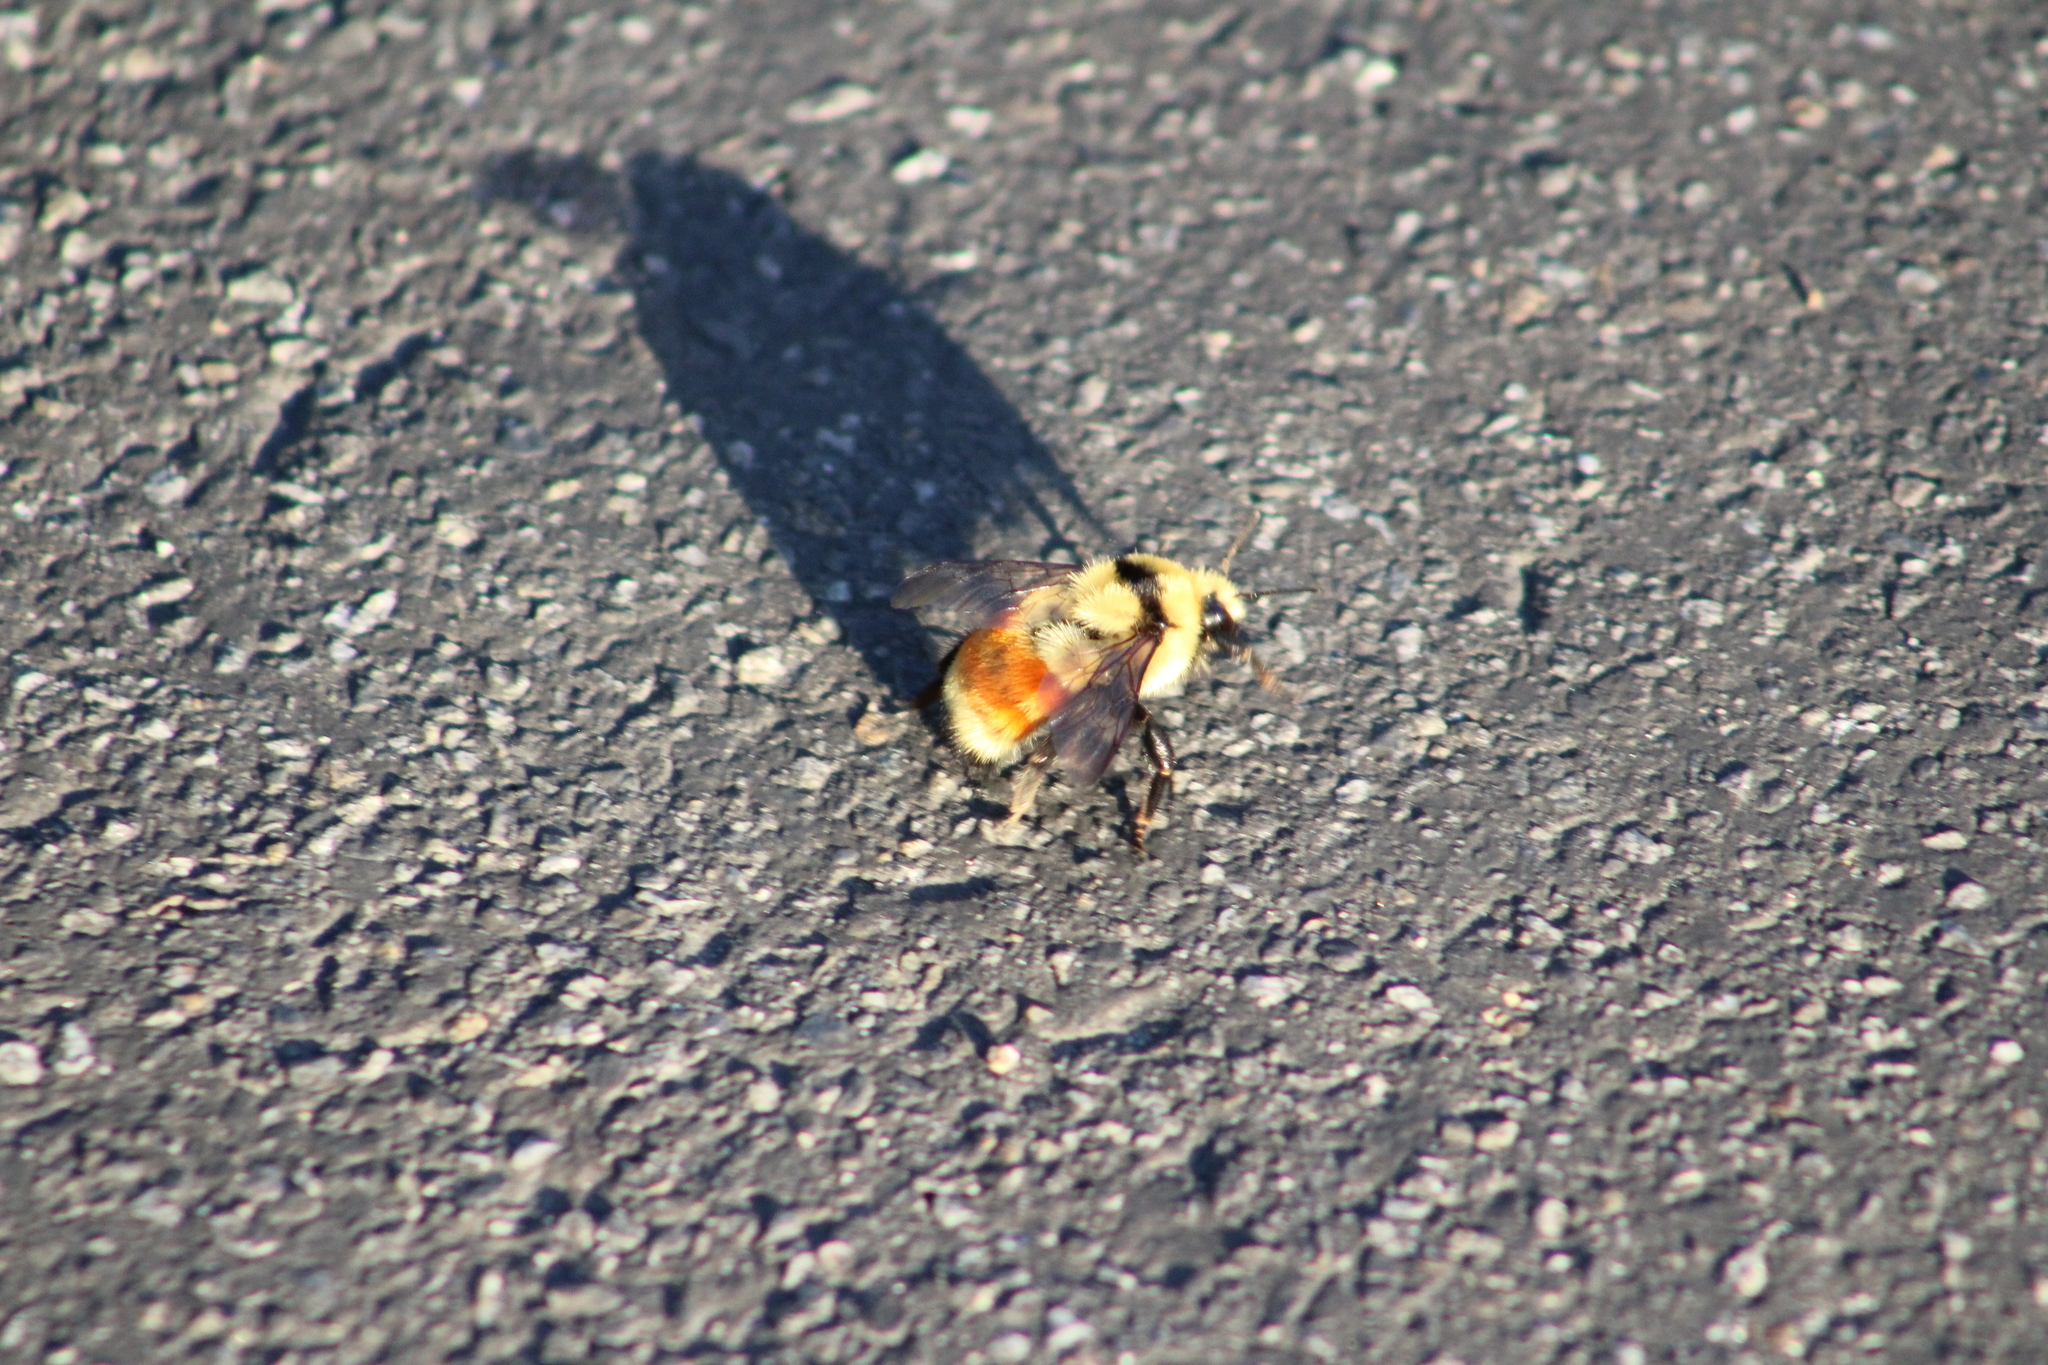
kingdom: Animalia
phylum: Arthropoda
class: Insecta
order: Hymenoptera
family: Apidae
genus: Bombus
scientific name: Bombus huntii
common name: Hunt bumble bee
